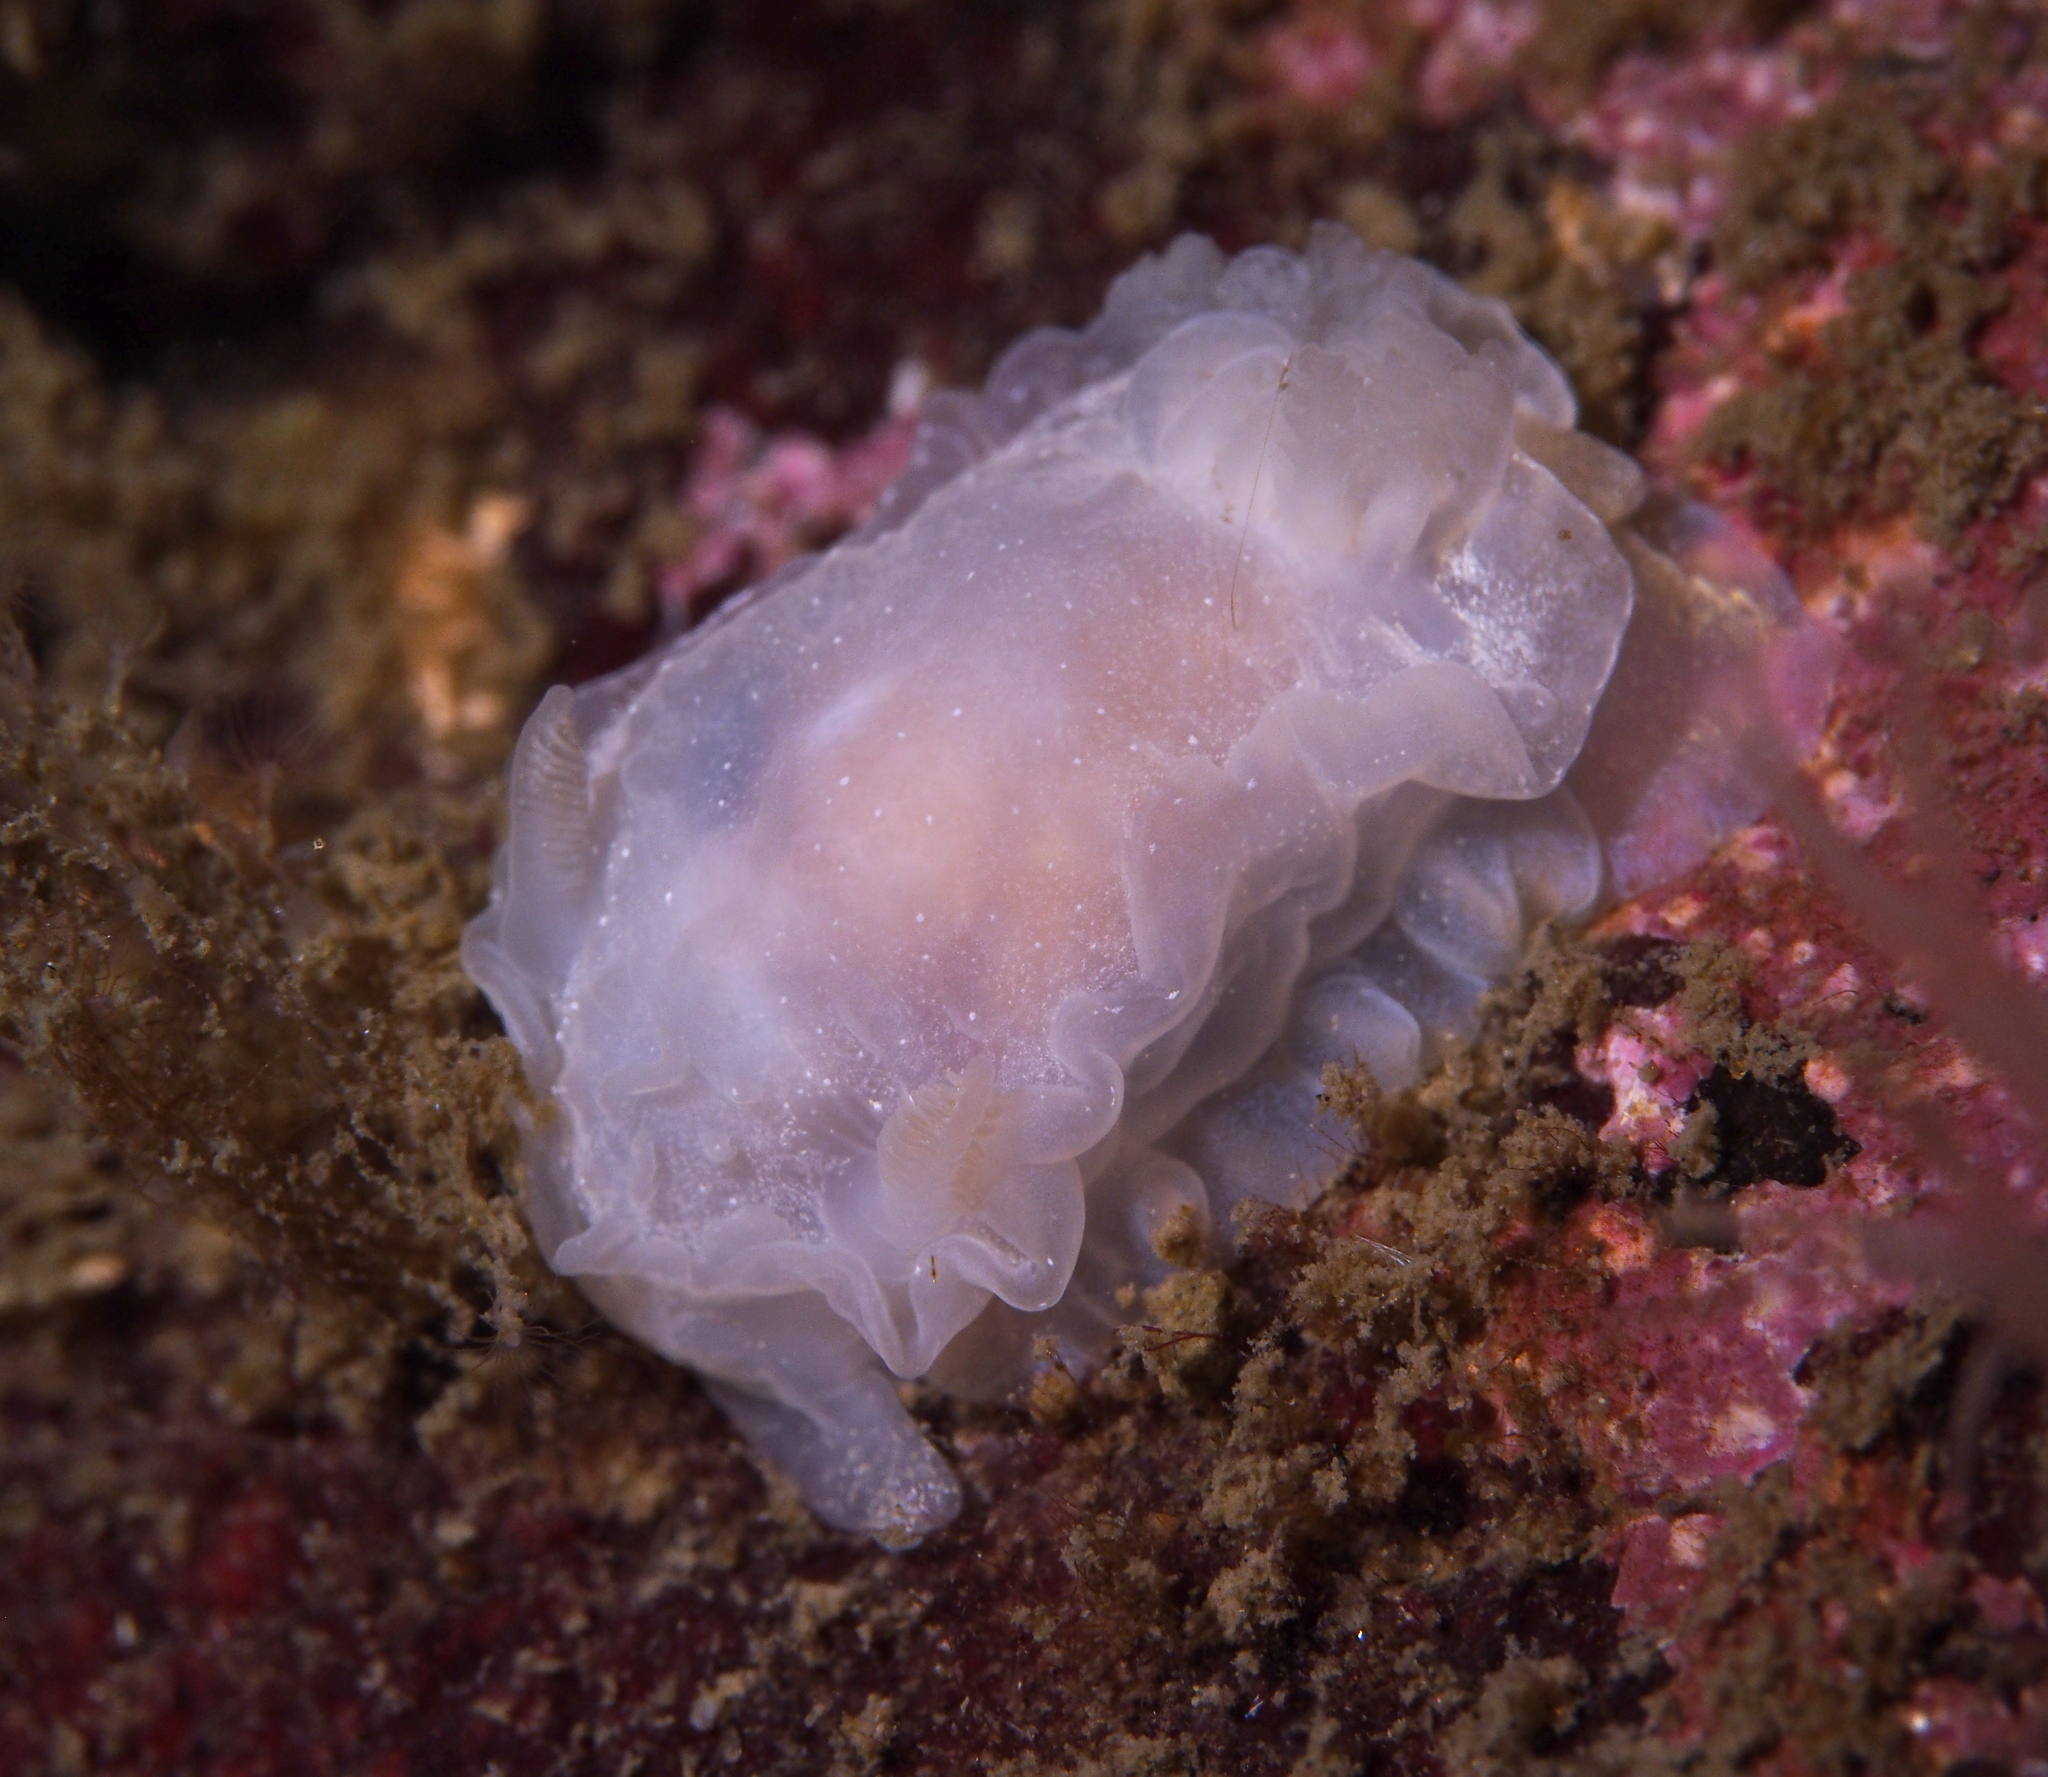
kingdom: Animalia
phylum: Mollusca
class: Gastropoda
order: Nudibranchia
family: Goniodorididae
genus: Okenia
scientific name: Okenia
